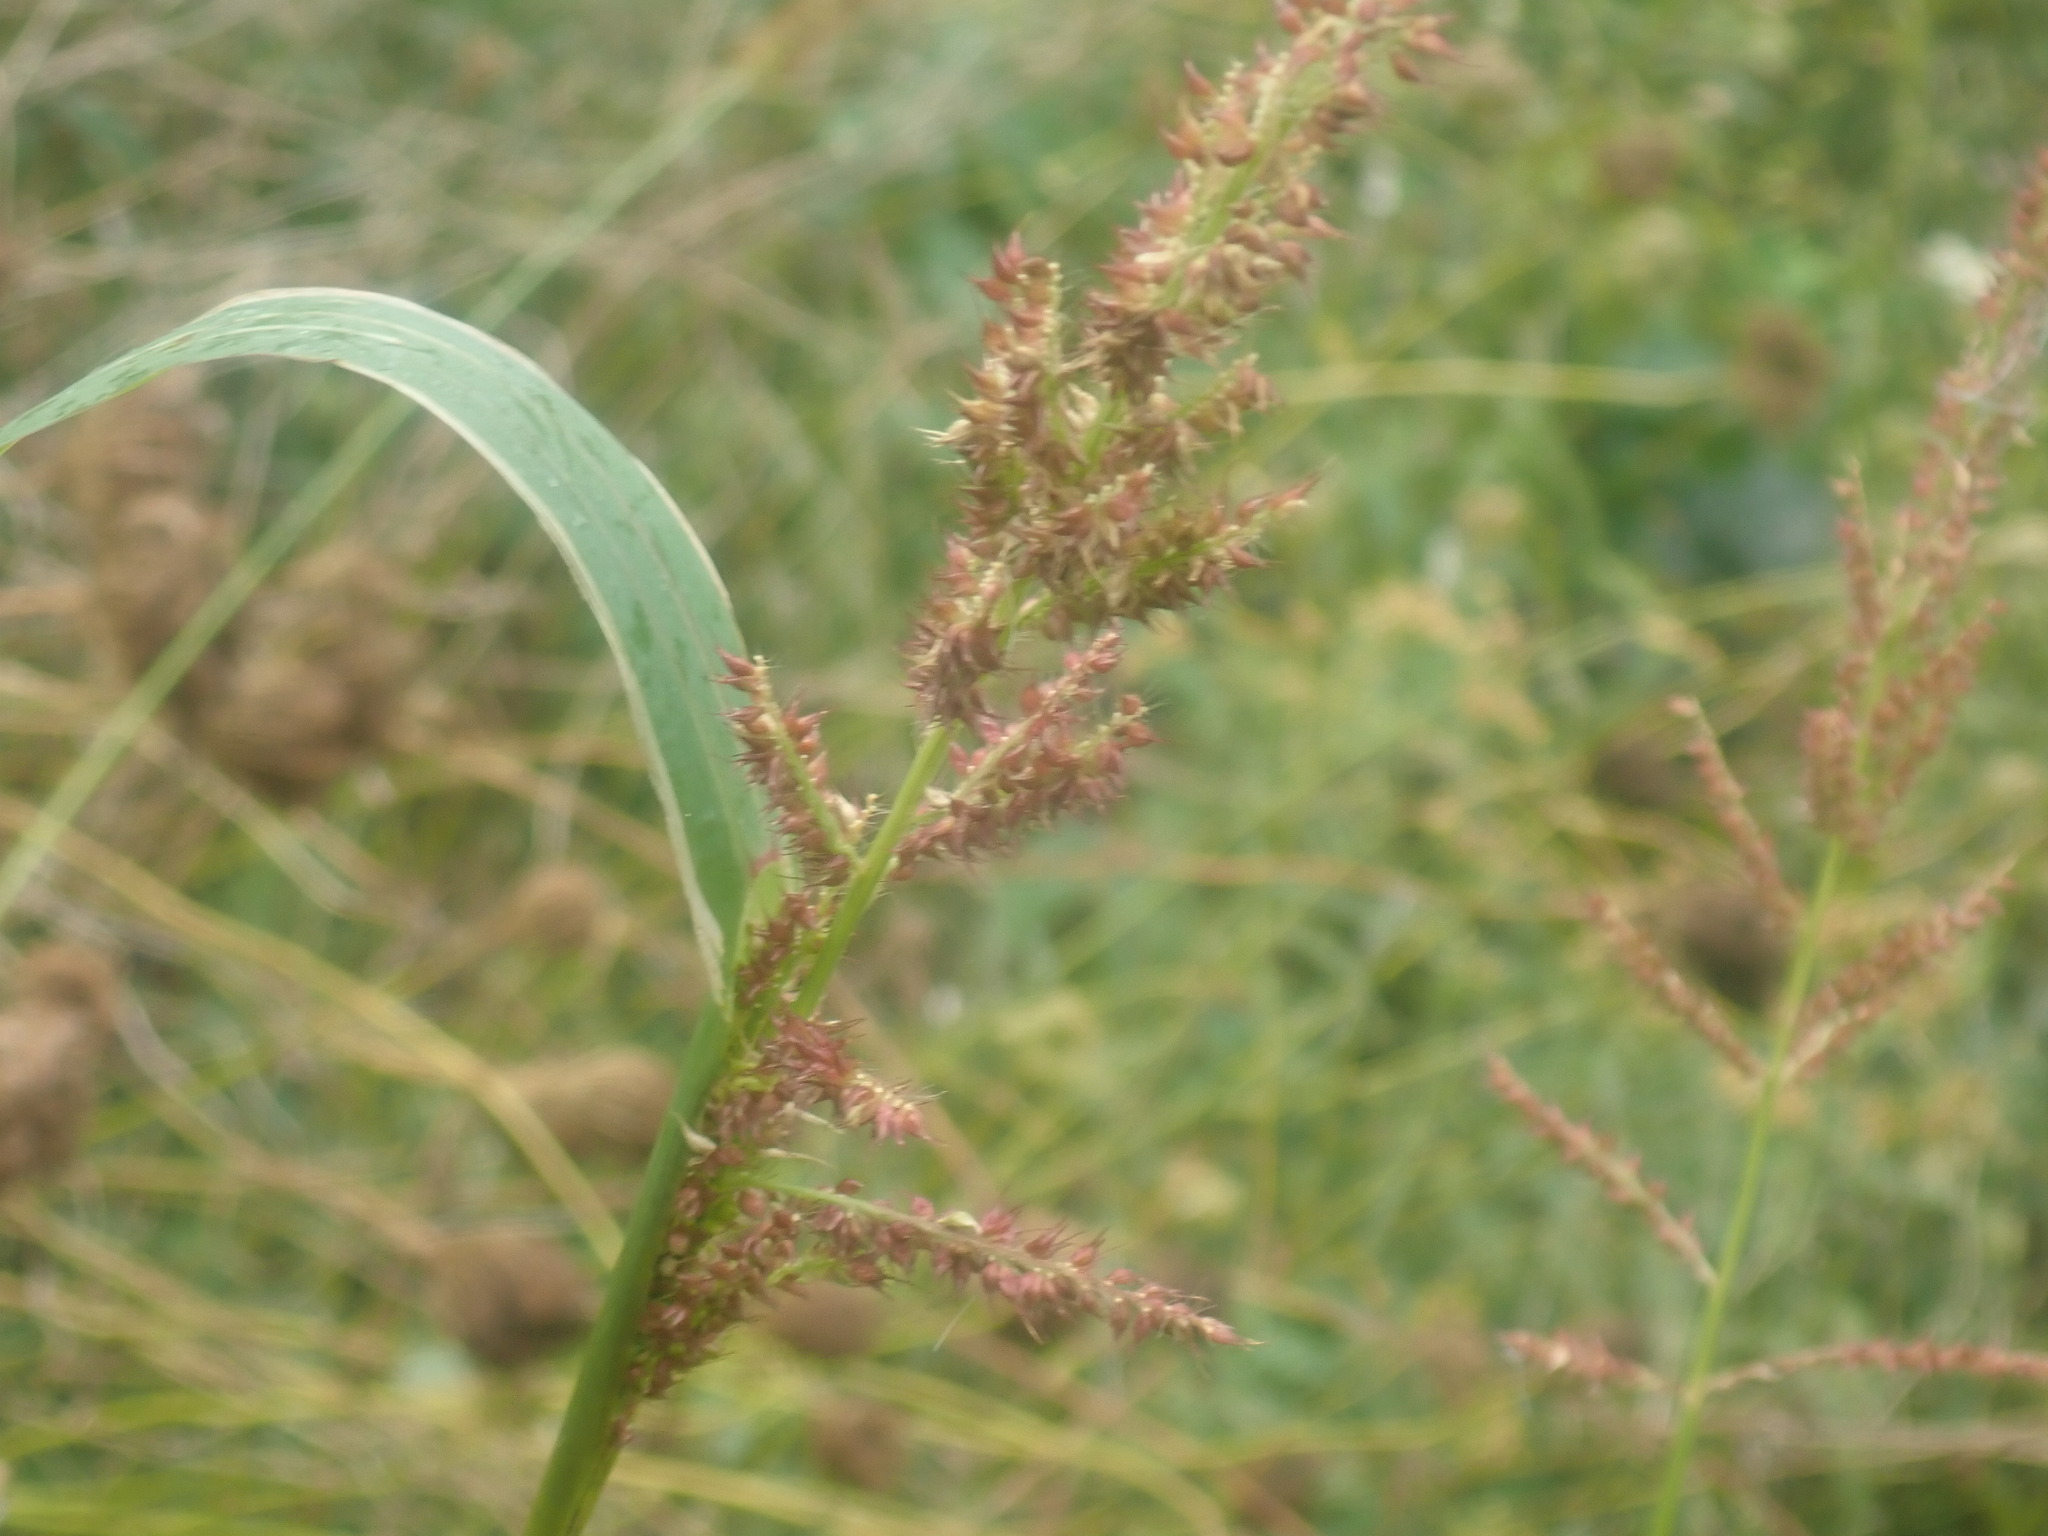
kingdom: Plantae
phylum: Tracheophyta
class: Liliopsida
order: Poales
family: Poaceae
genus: Echinochloa
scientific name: Echinochloa crus-galli
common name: Cockspur
